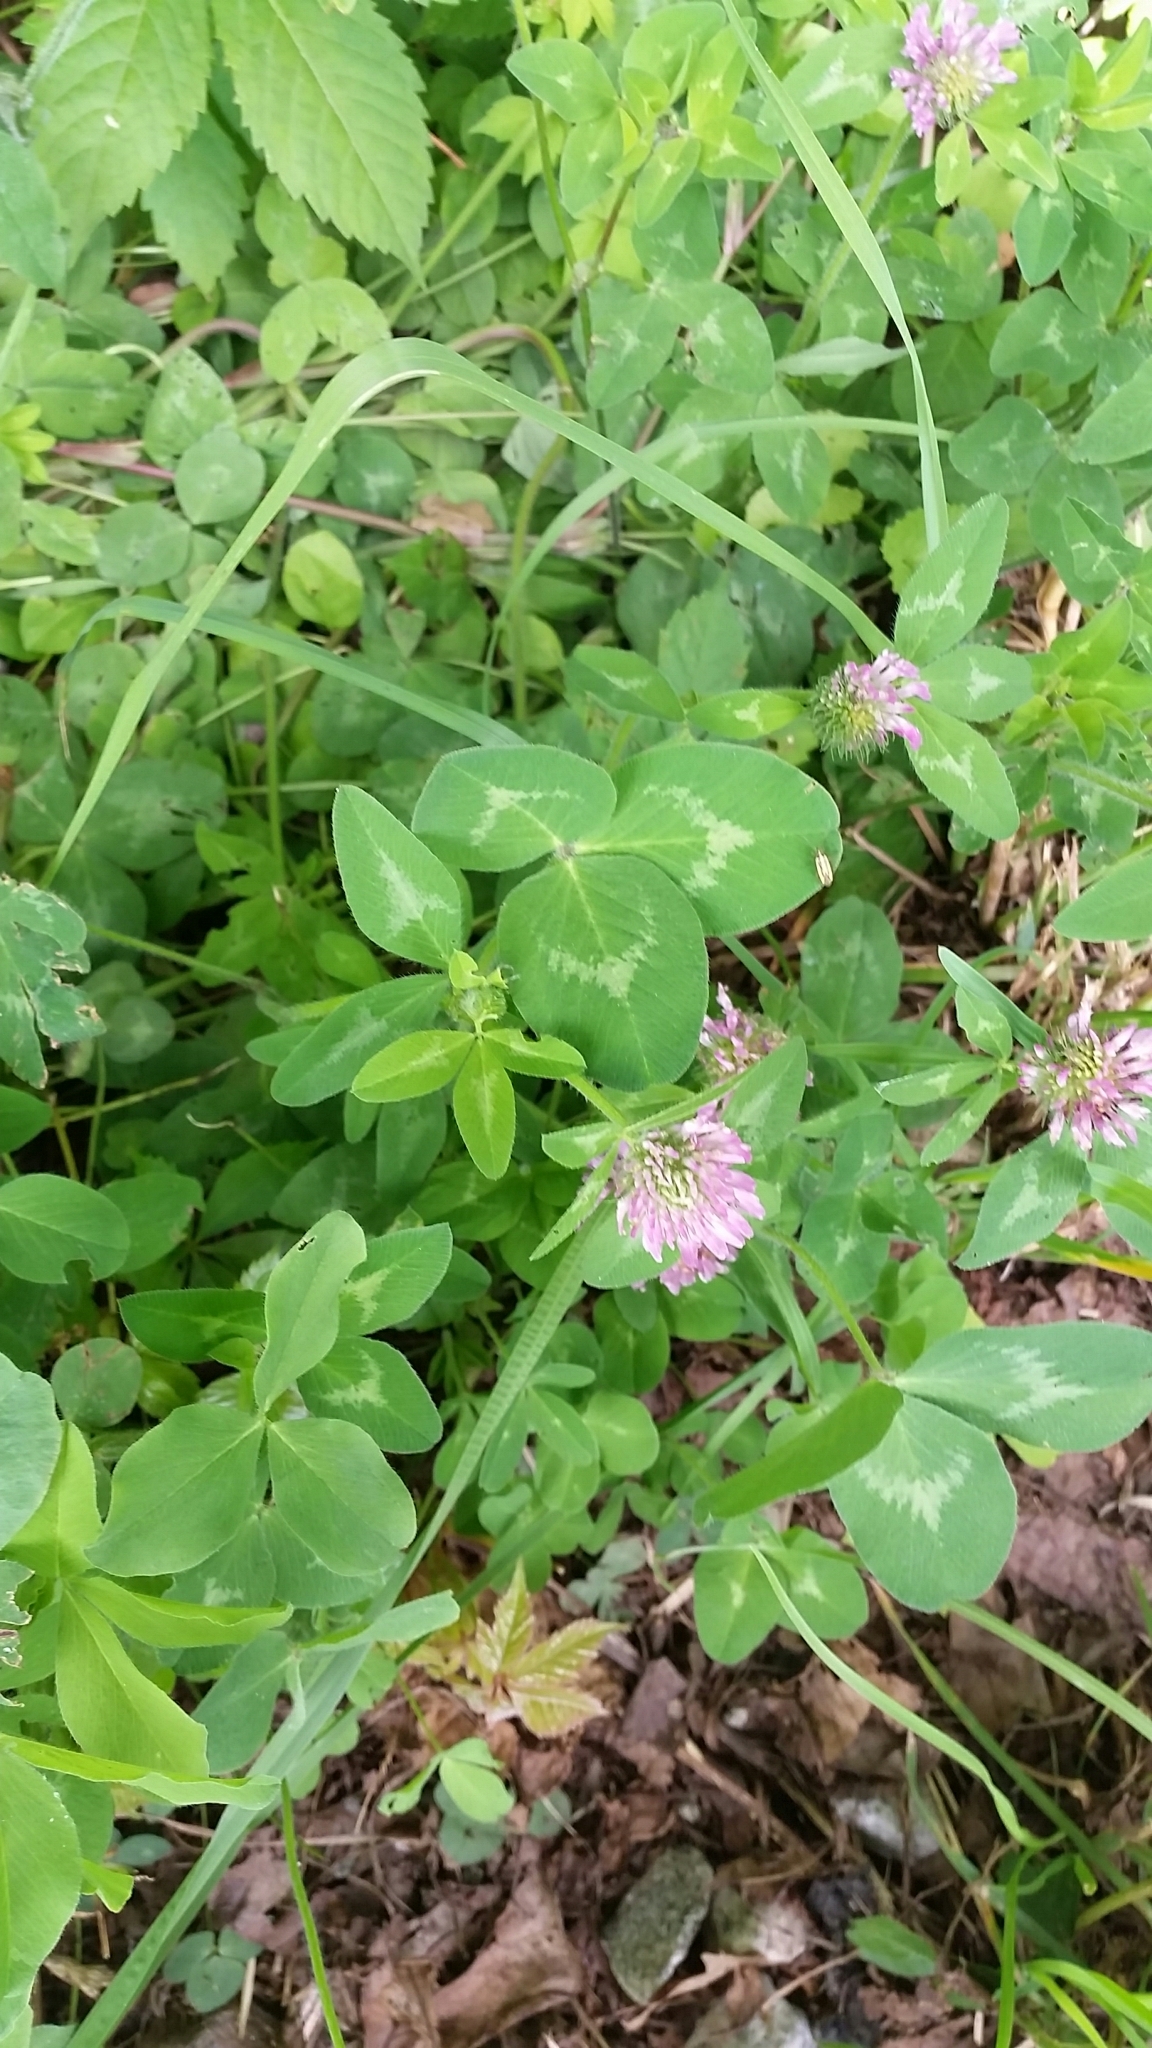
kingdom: Plantae
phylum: Tracheophyta
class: Magnoliopsida
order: Fabales
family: Fabaceae
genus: Trifolium
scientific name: Trifolium pratense
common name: Red clover
